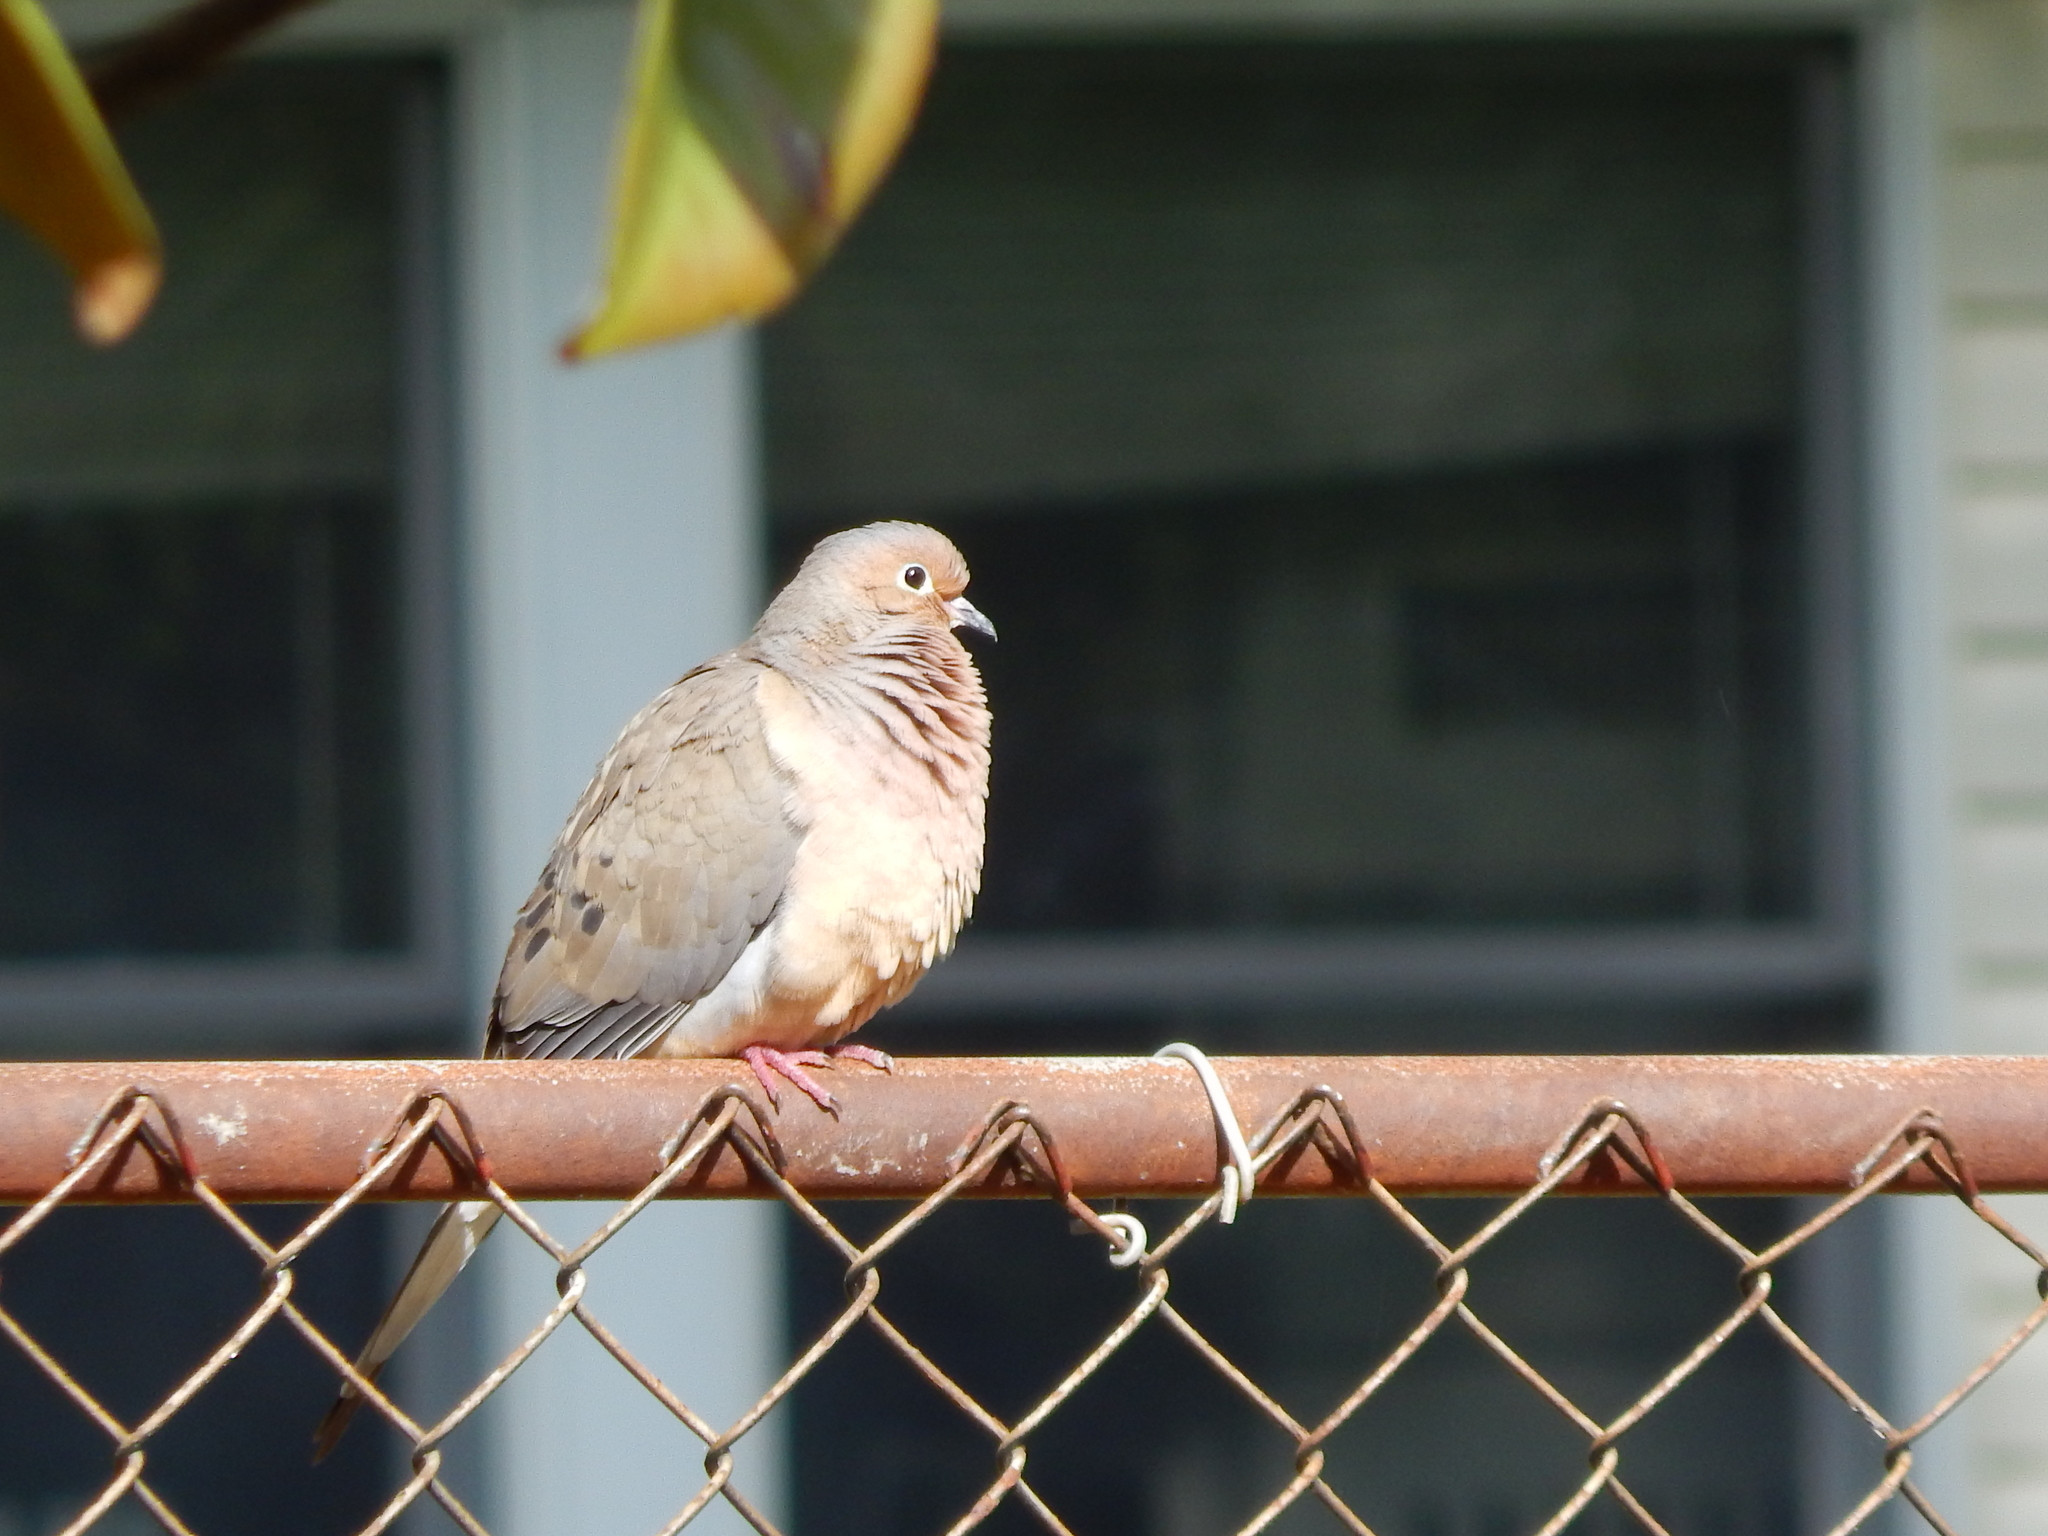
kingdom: Animalia
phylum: Chordata
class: Aves
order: Columbiformes
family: Columbidae
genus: Zenaida
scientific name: Zenaida macroura
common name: Mourning dove
